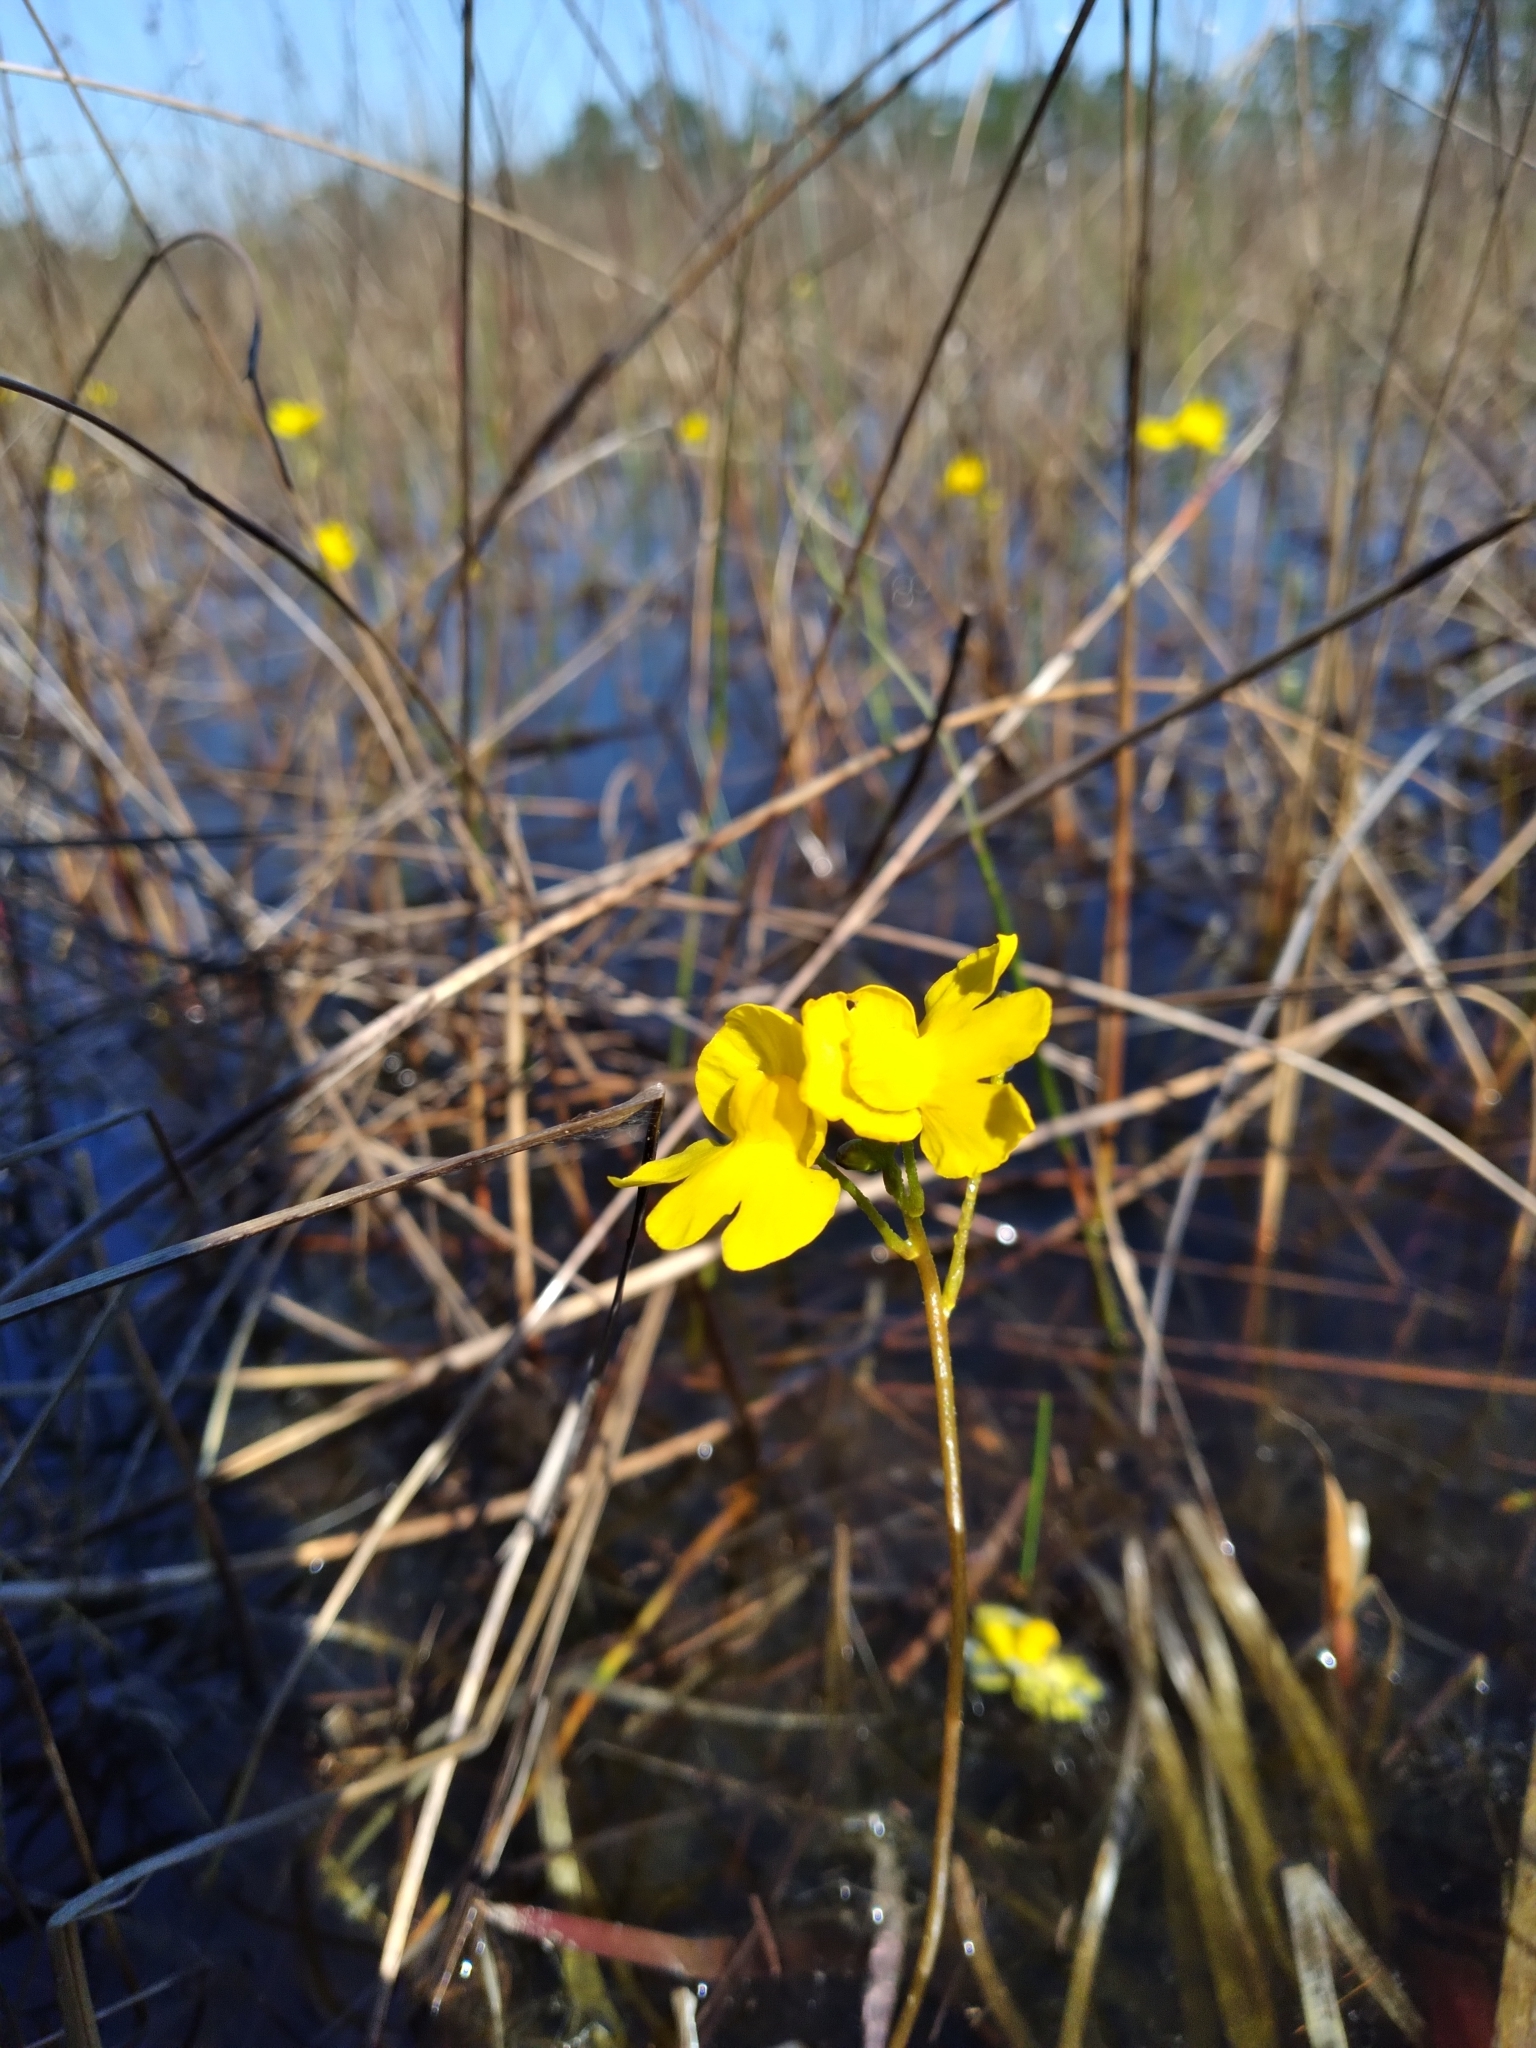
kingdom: Plantae
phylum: Tracheophyta
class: Magnoliopsida
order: Lamiales
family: Lentibulariaceae
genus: Utricularia
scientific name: Utricularia inflata
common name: Floating bladderwort
